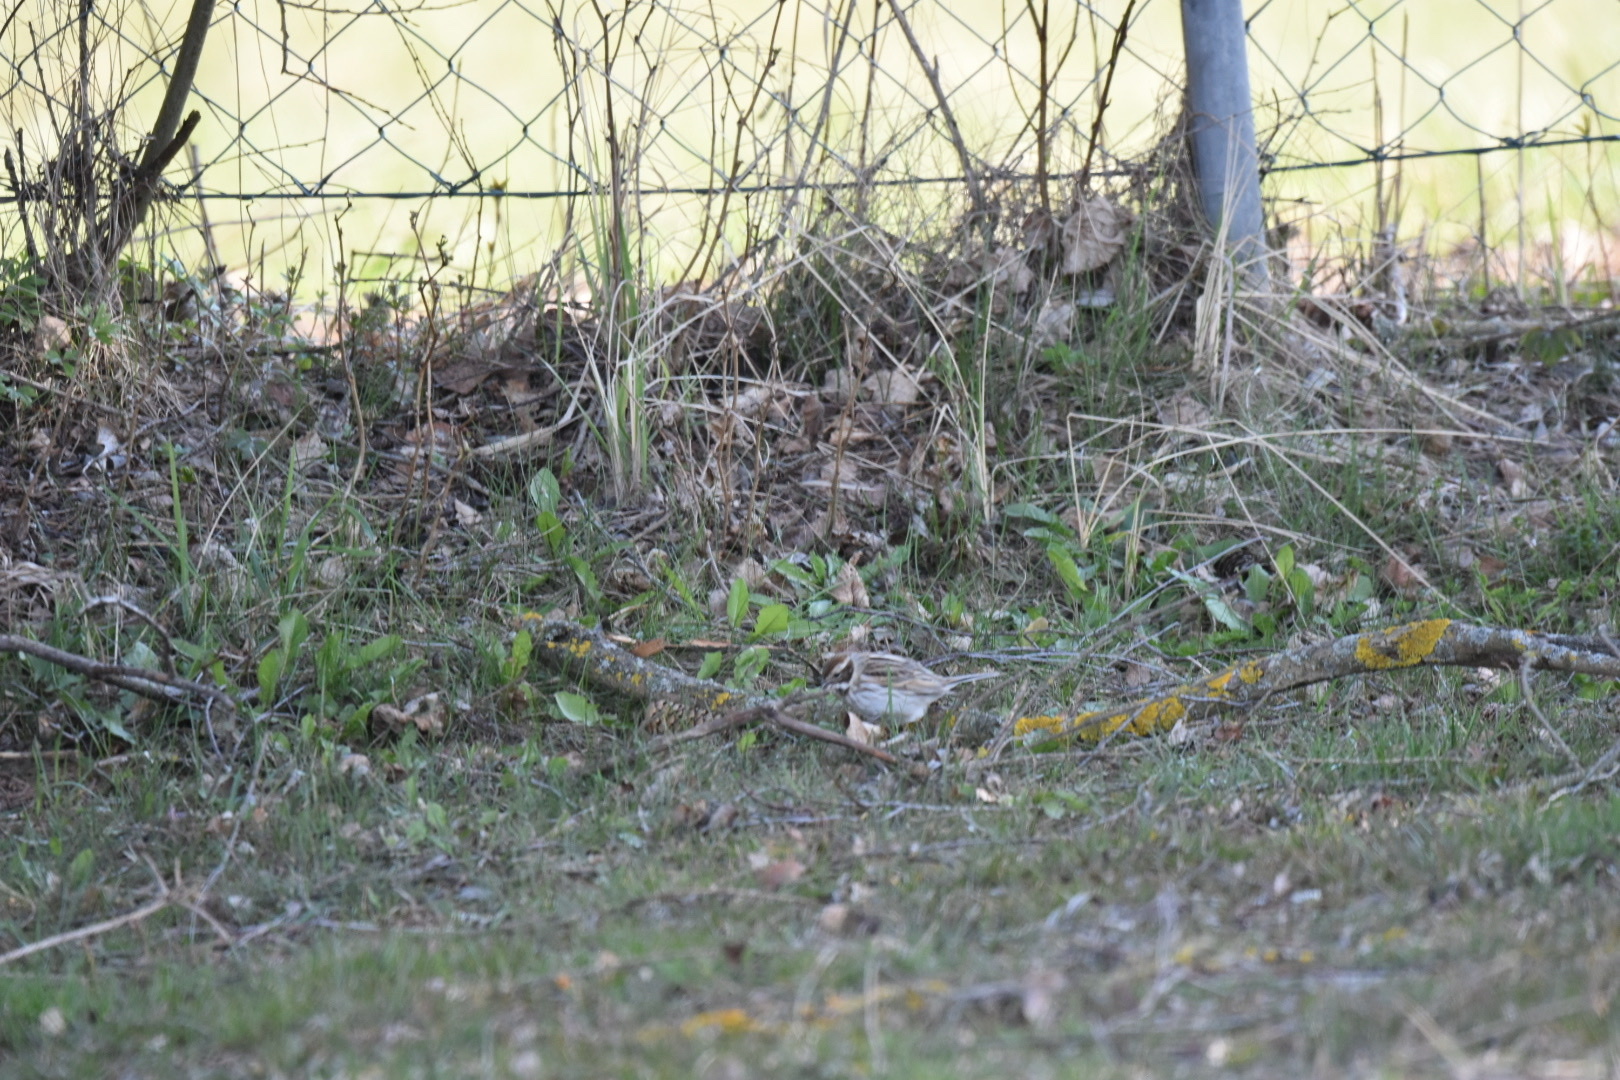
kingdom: Animalia
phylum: Chordata
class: Aves
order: Passeriformes
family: Emberizidae
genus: Emberiza
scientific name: Emberiza schoeniclus
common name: Reed bunting
